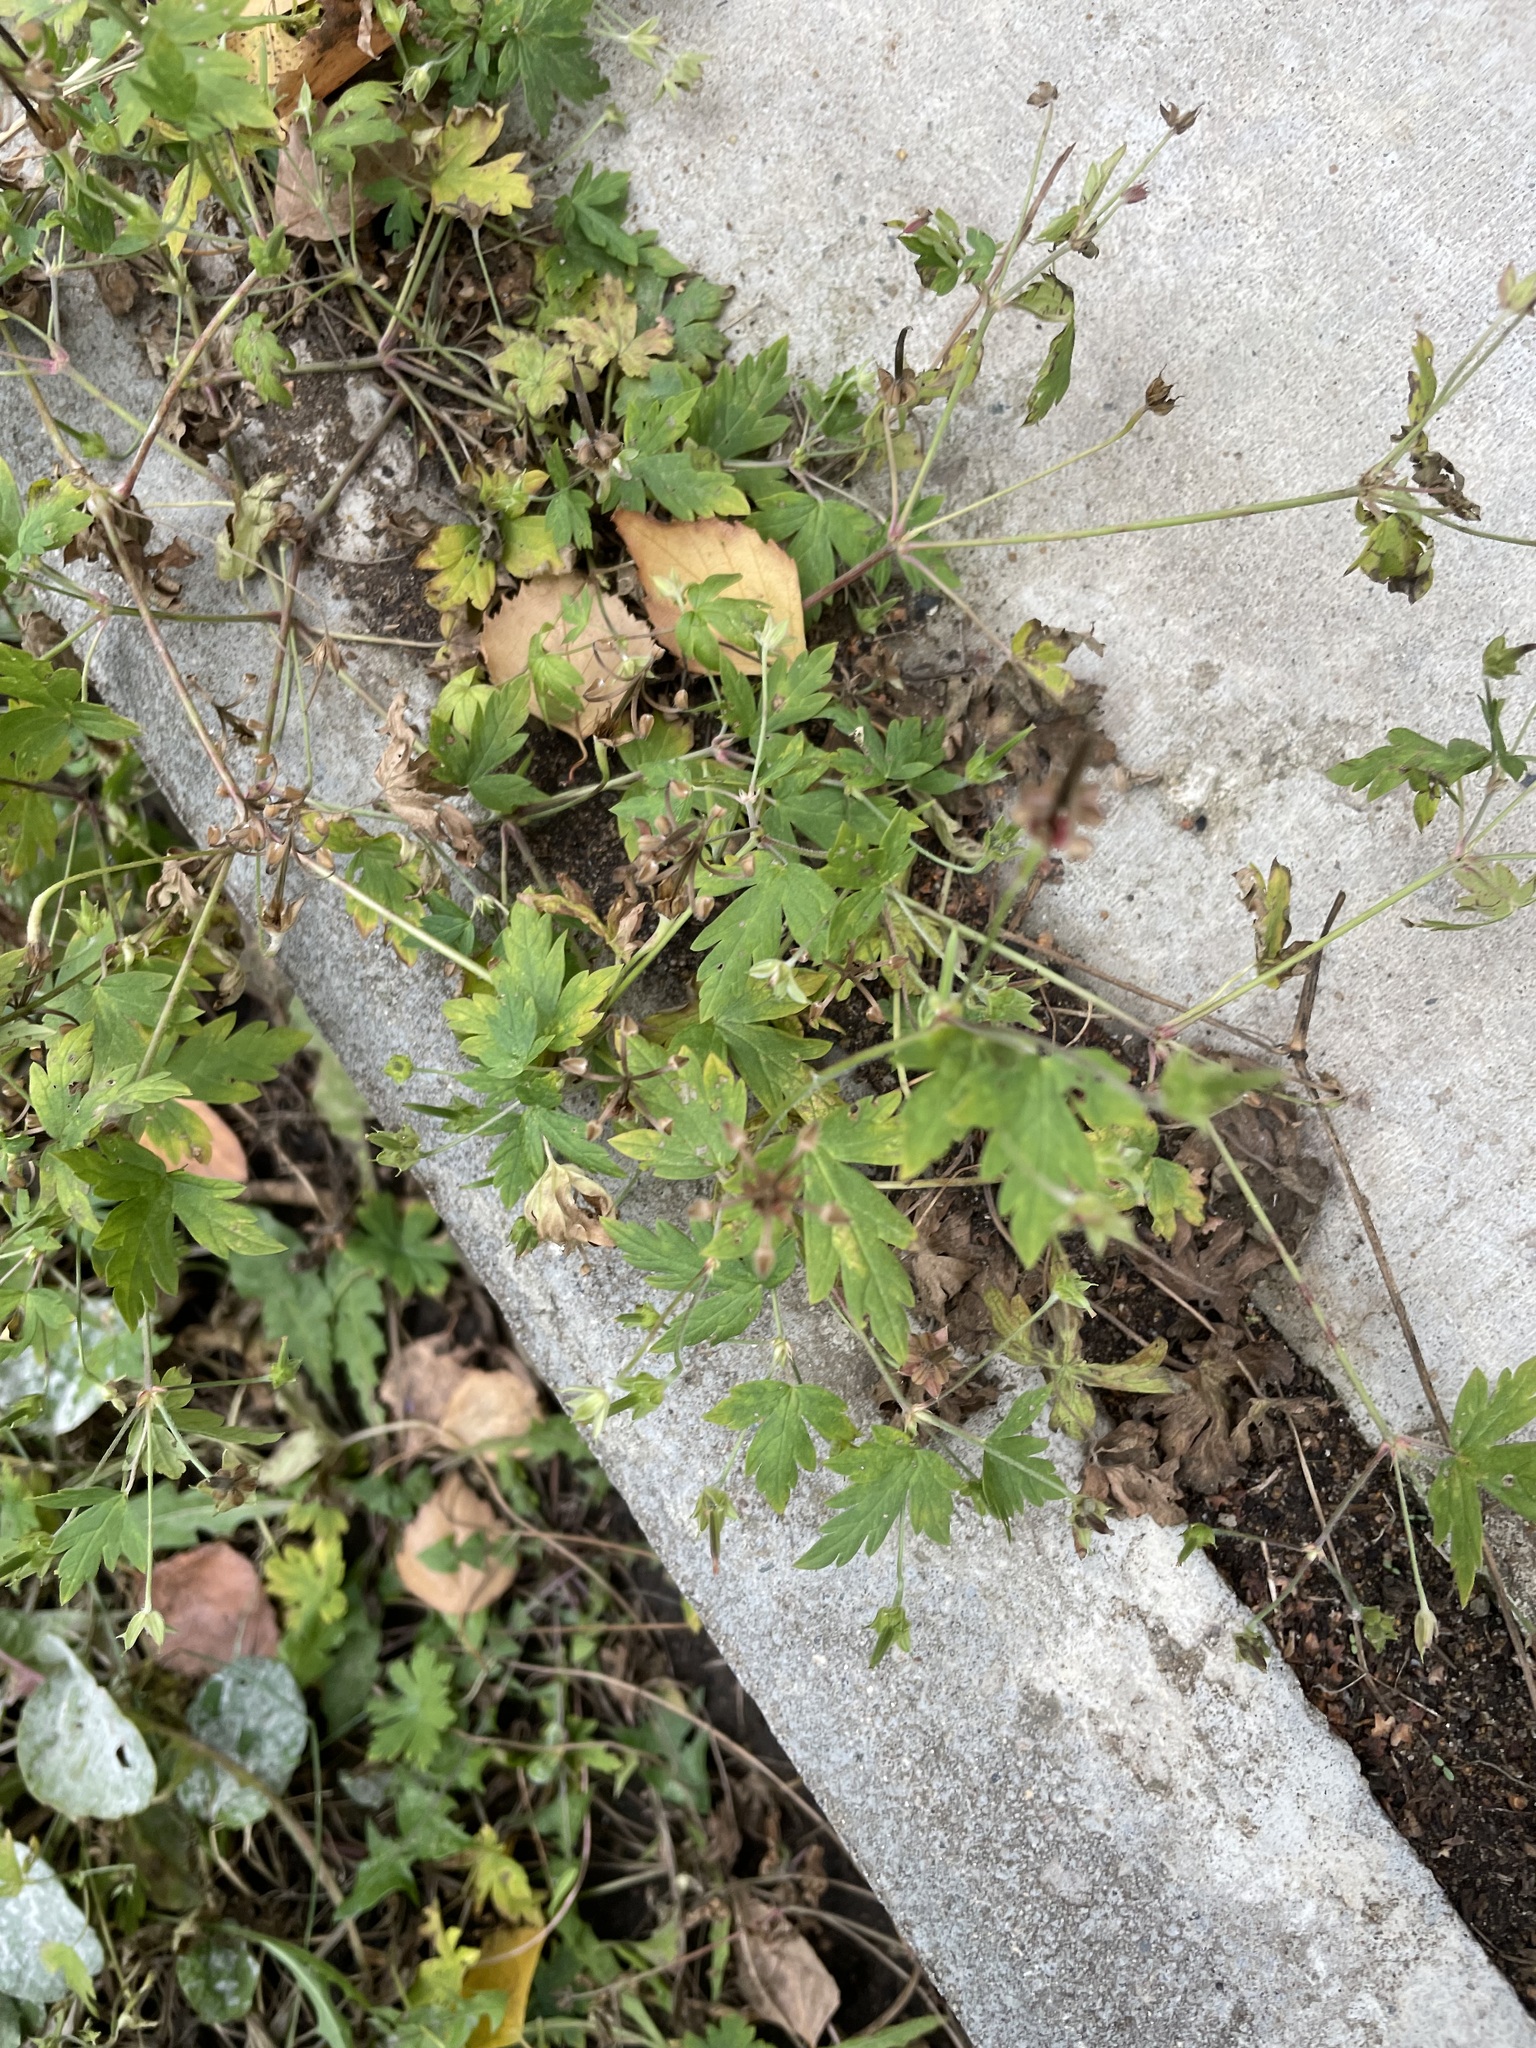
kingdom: Plantae
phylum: Tracheophyta
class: Magnoliopsida
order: Geraniales
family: Geraniaceae
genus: Geranium
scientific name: Geranium sibiricum
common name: Siberian crane's-bill
